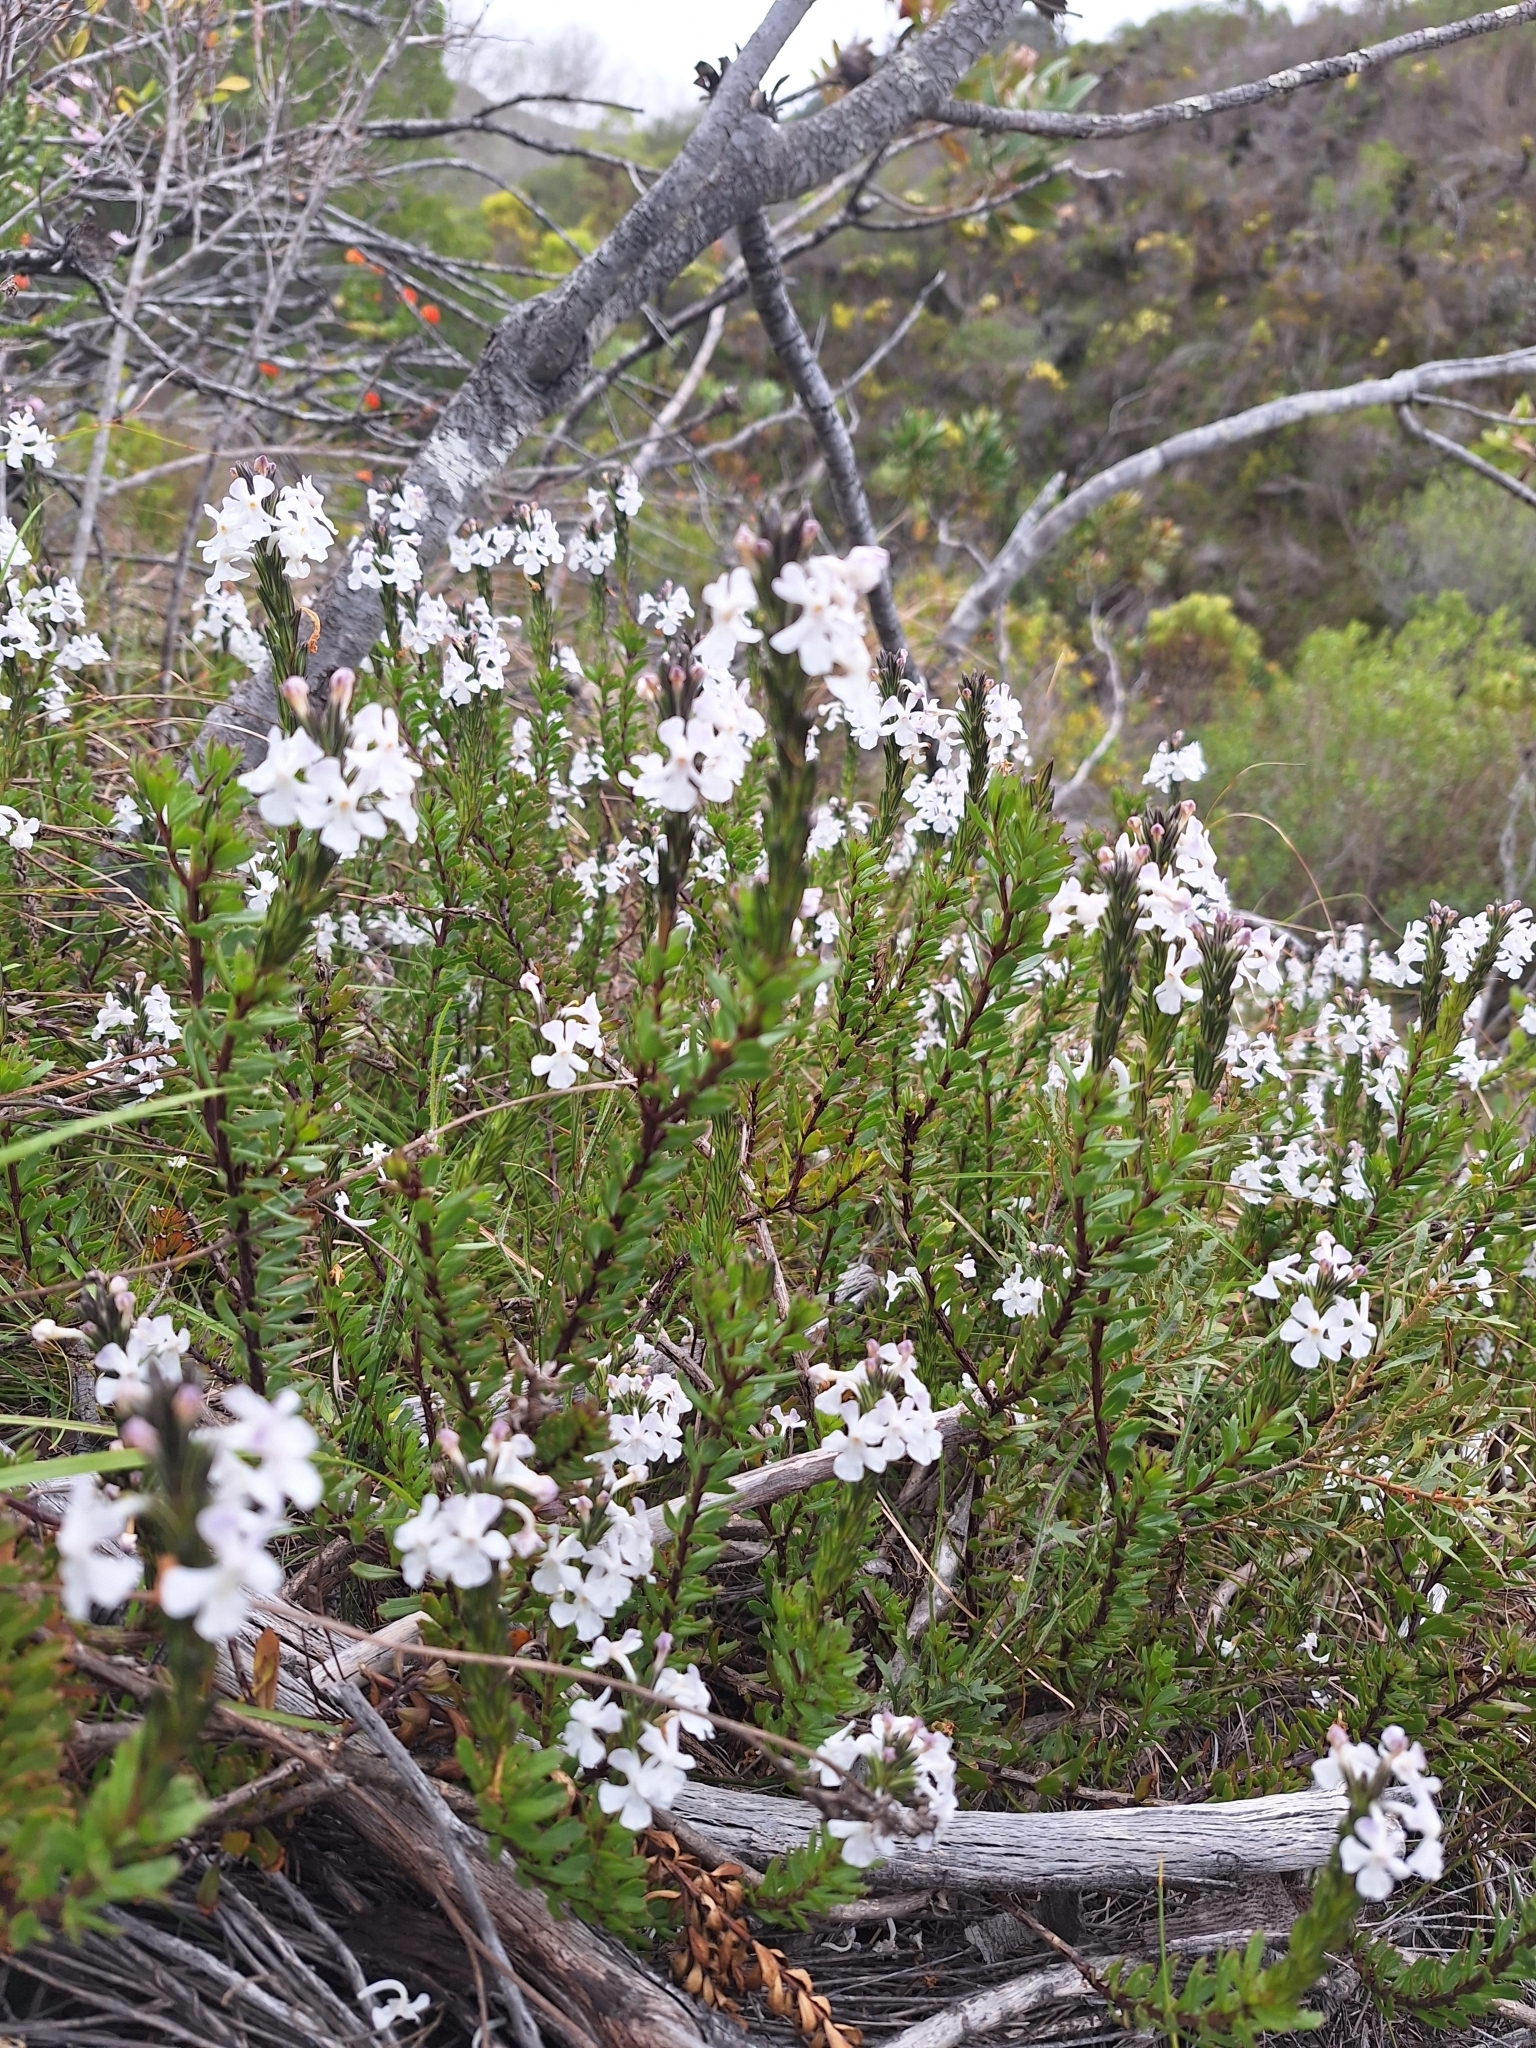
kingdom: Plantae
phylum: Tracheophyta
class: Magnoliopsida
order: Lamiales
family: Verbenaceae
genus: Chascanum
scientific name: Chascanum cernuum
